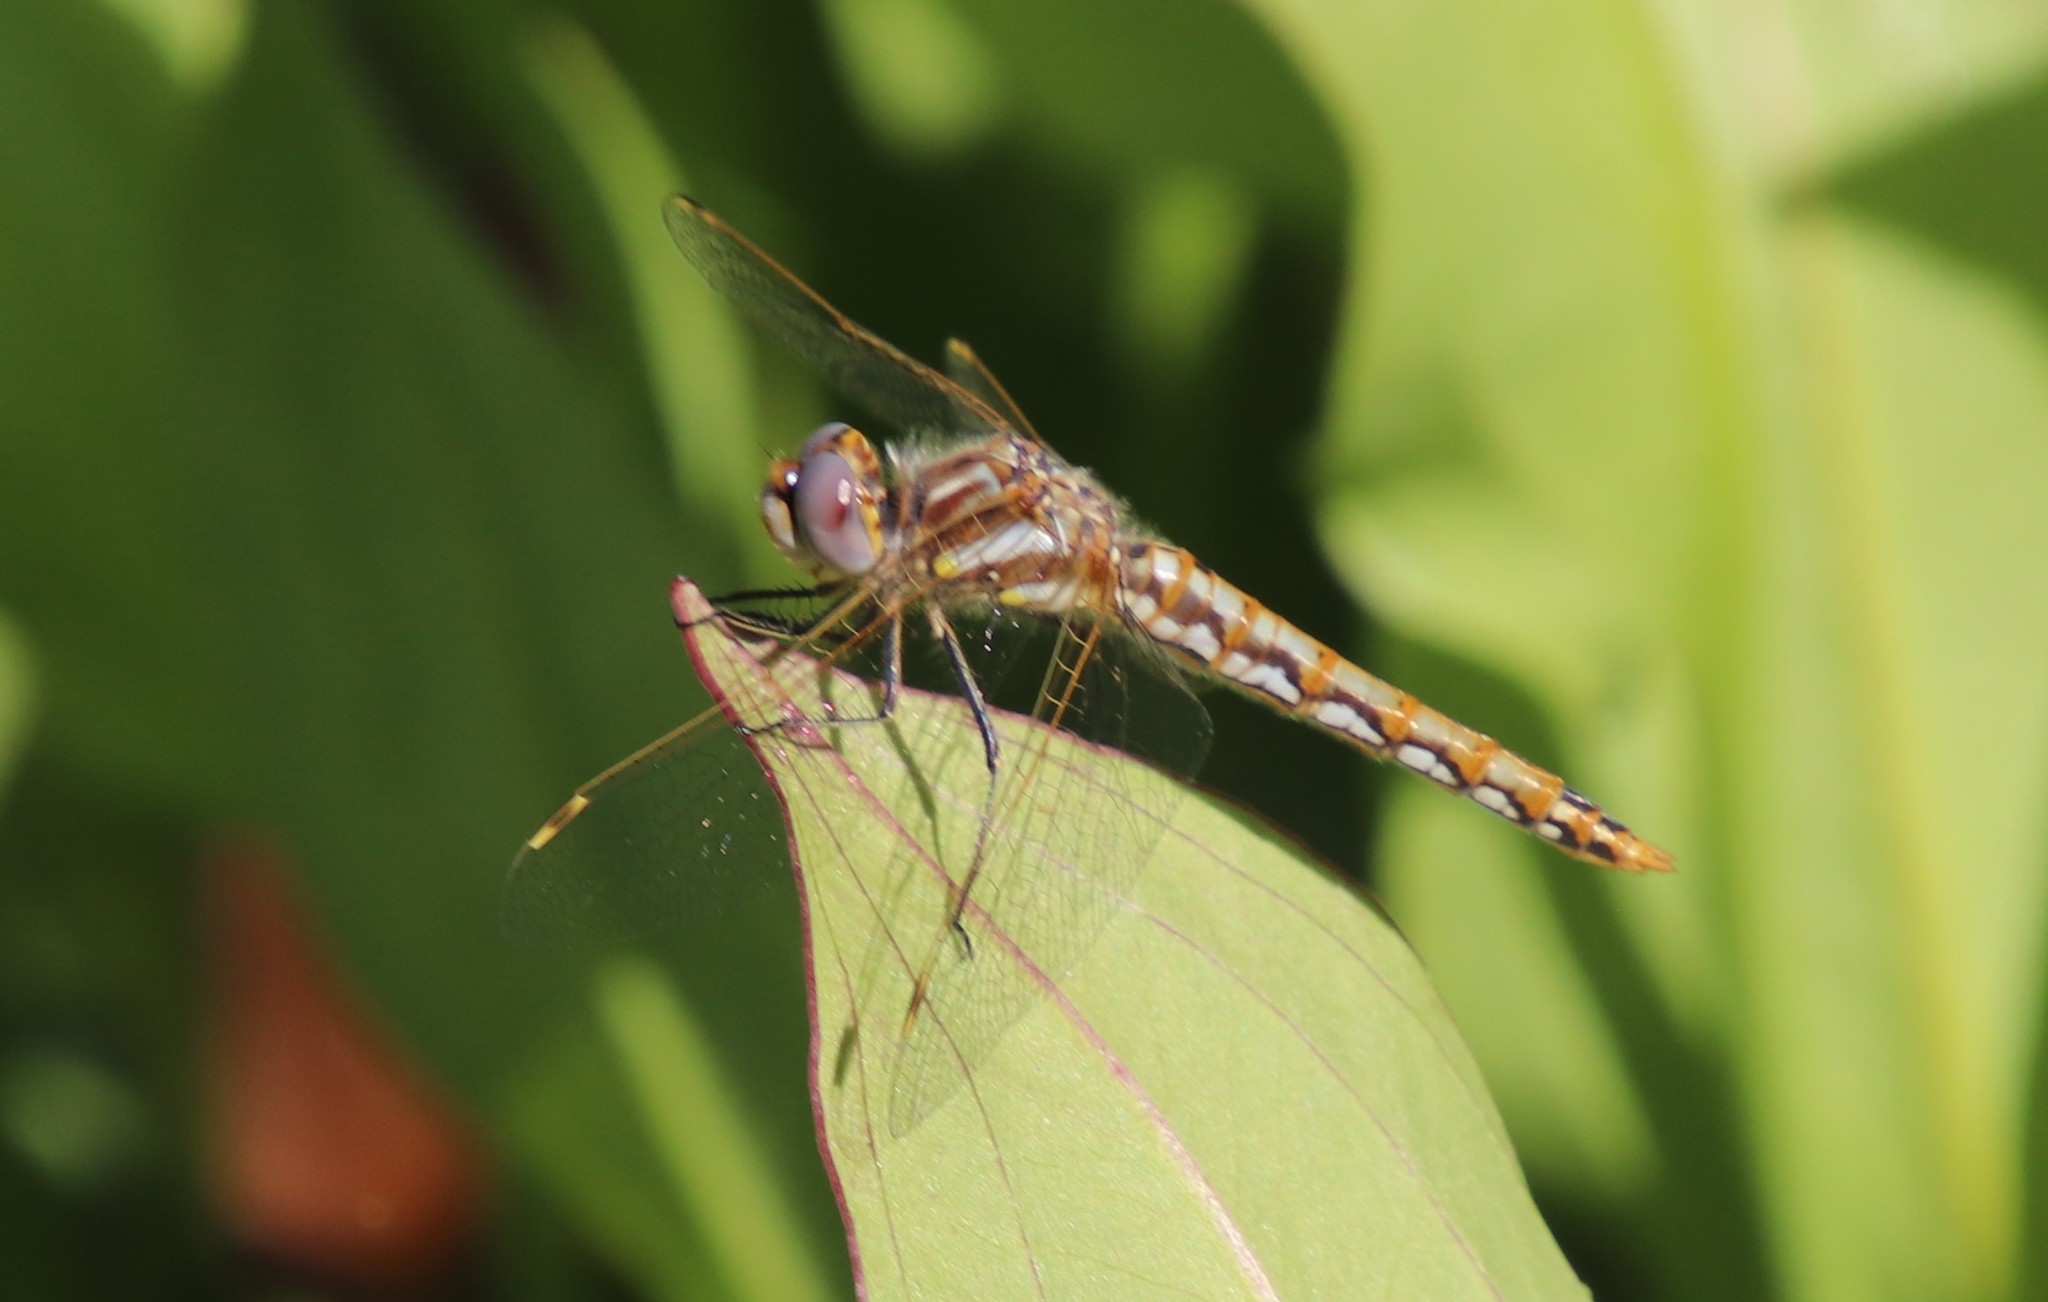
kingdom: Animalia
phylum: Arthropoda
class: Insecta
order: Odonata
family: Libellulidae
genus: Sympetrum
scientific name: Sympetrum corruptum
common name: Variegated meadowhawk
